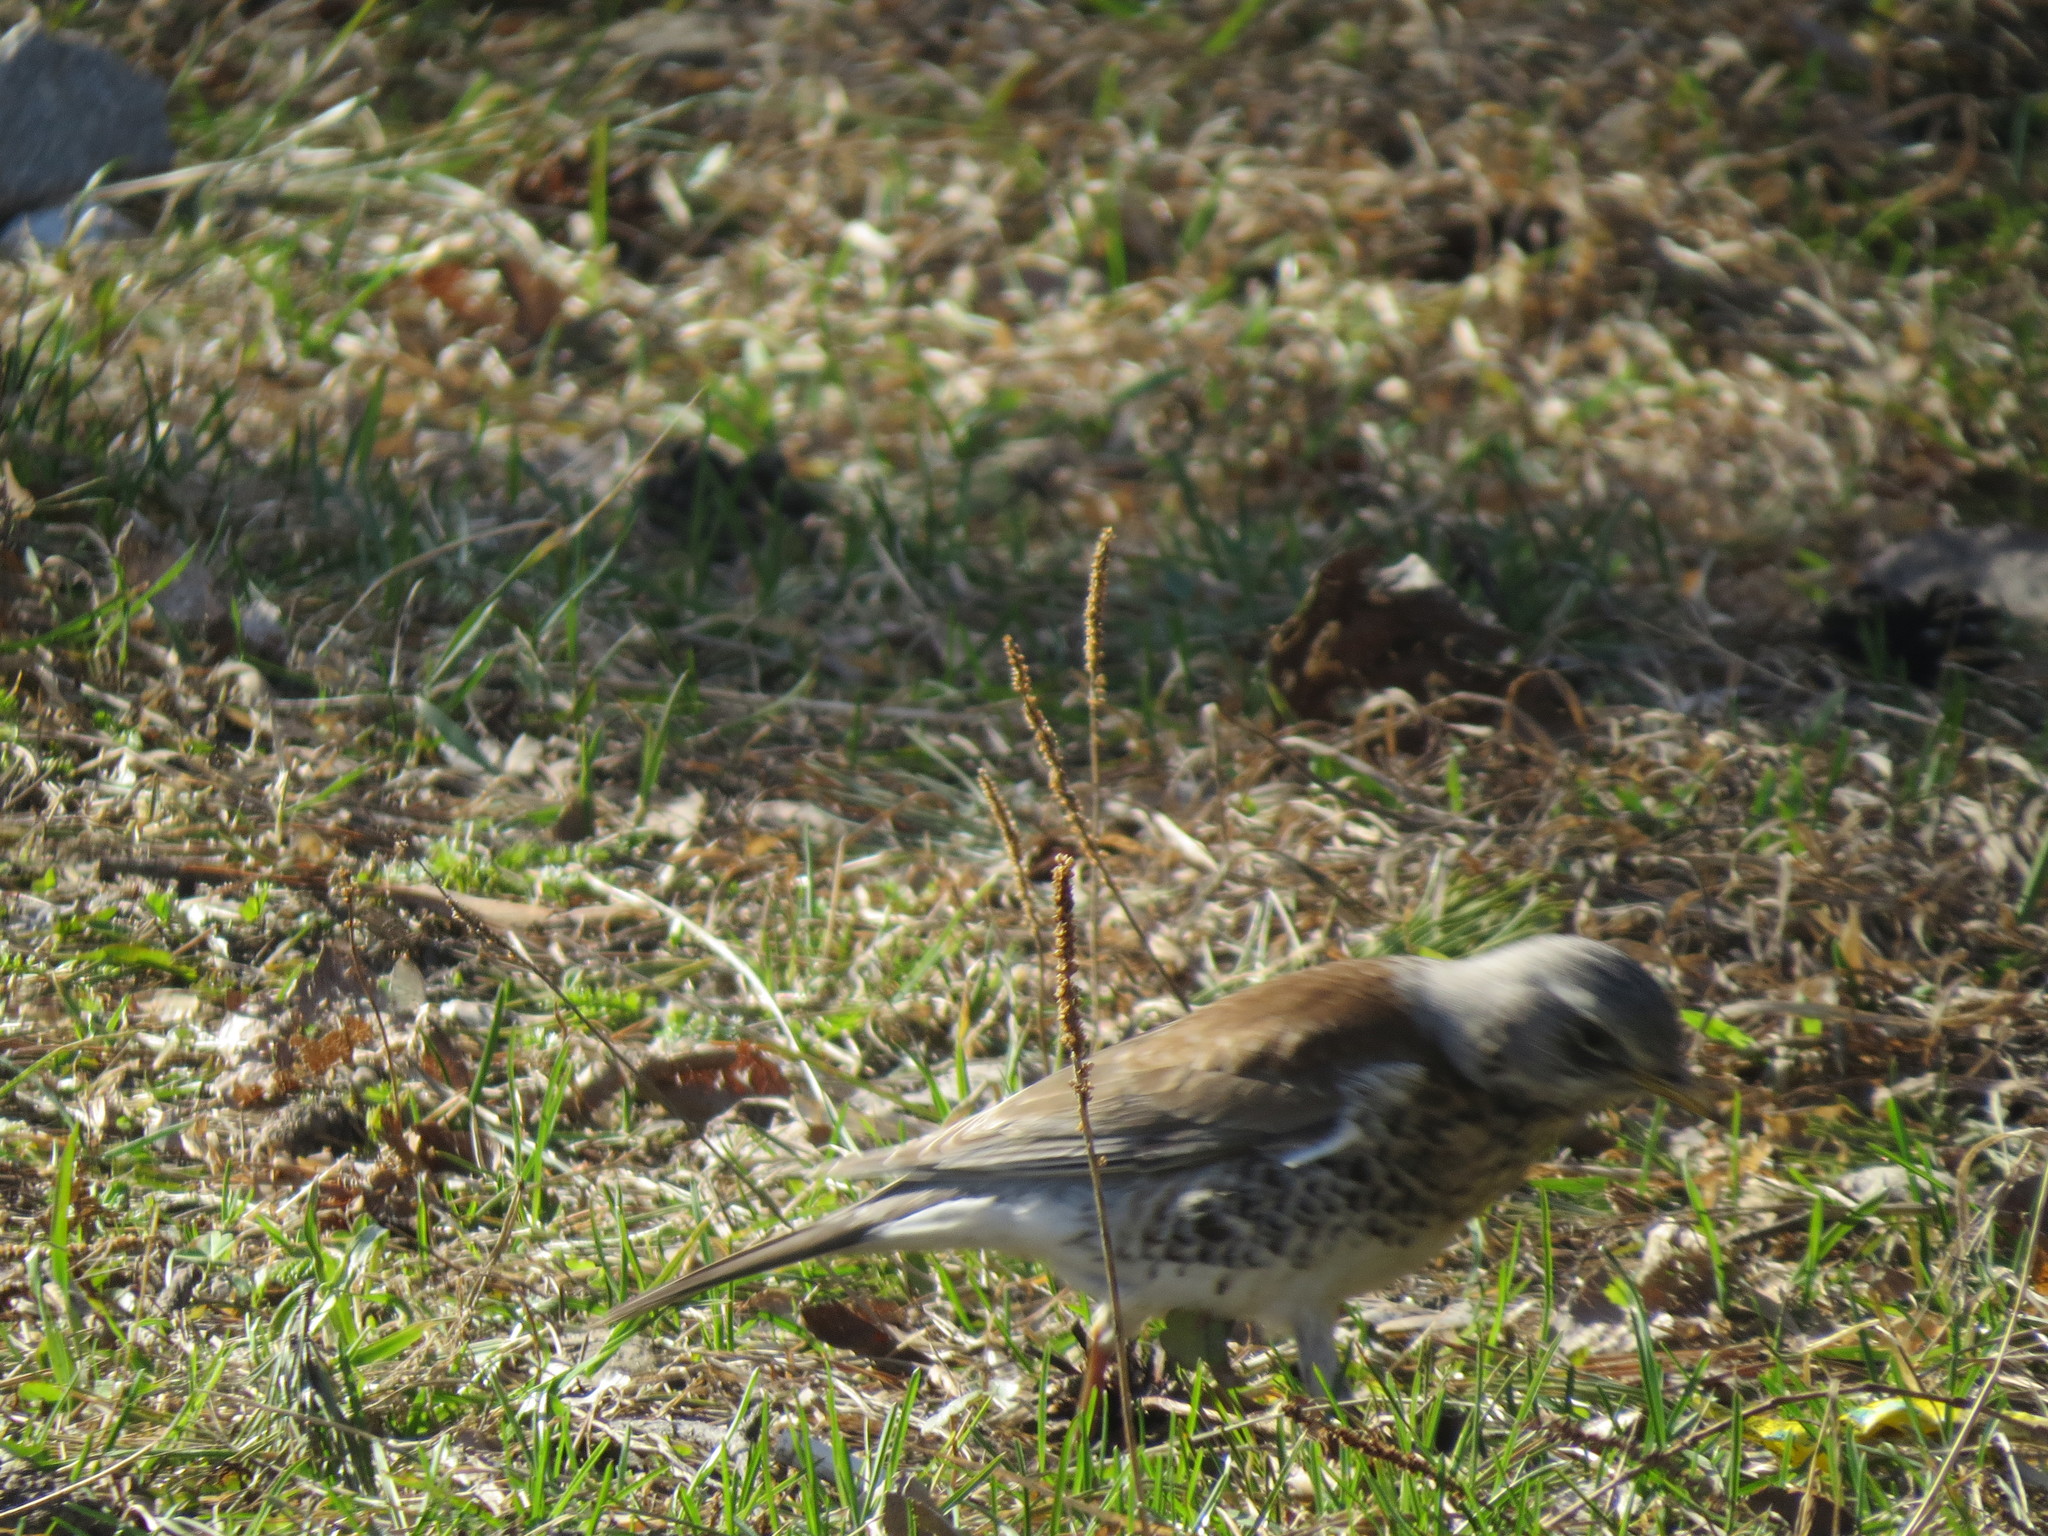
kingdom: Animalia
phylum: Chordata
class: Aves
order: Passeriformes
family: Turdidae
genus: Turdus
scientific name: Turdus pilaris
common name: Fieldfare
